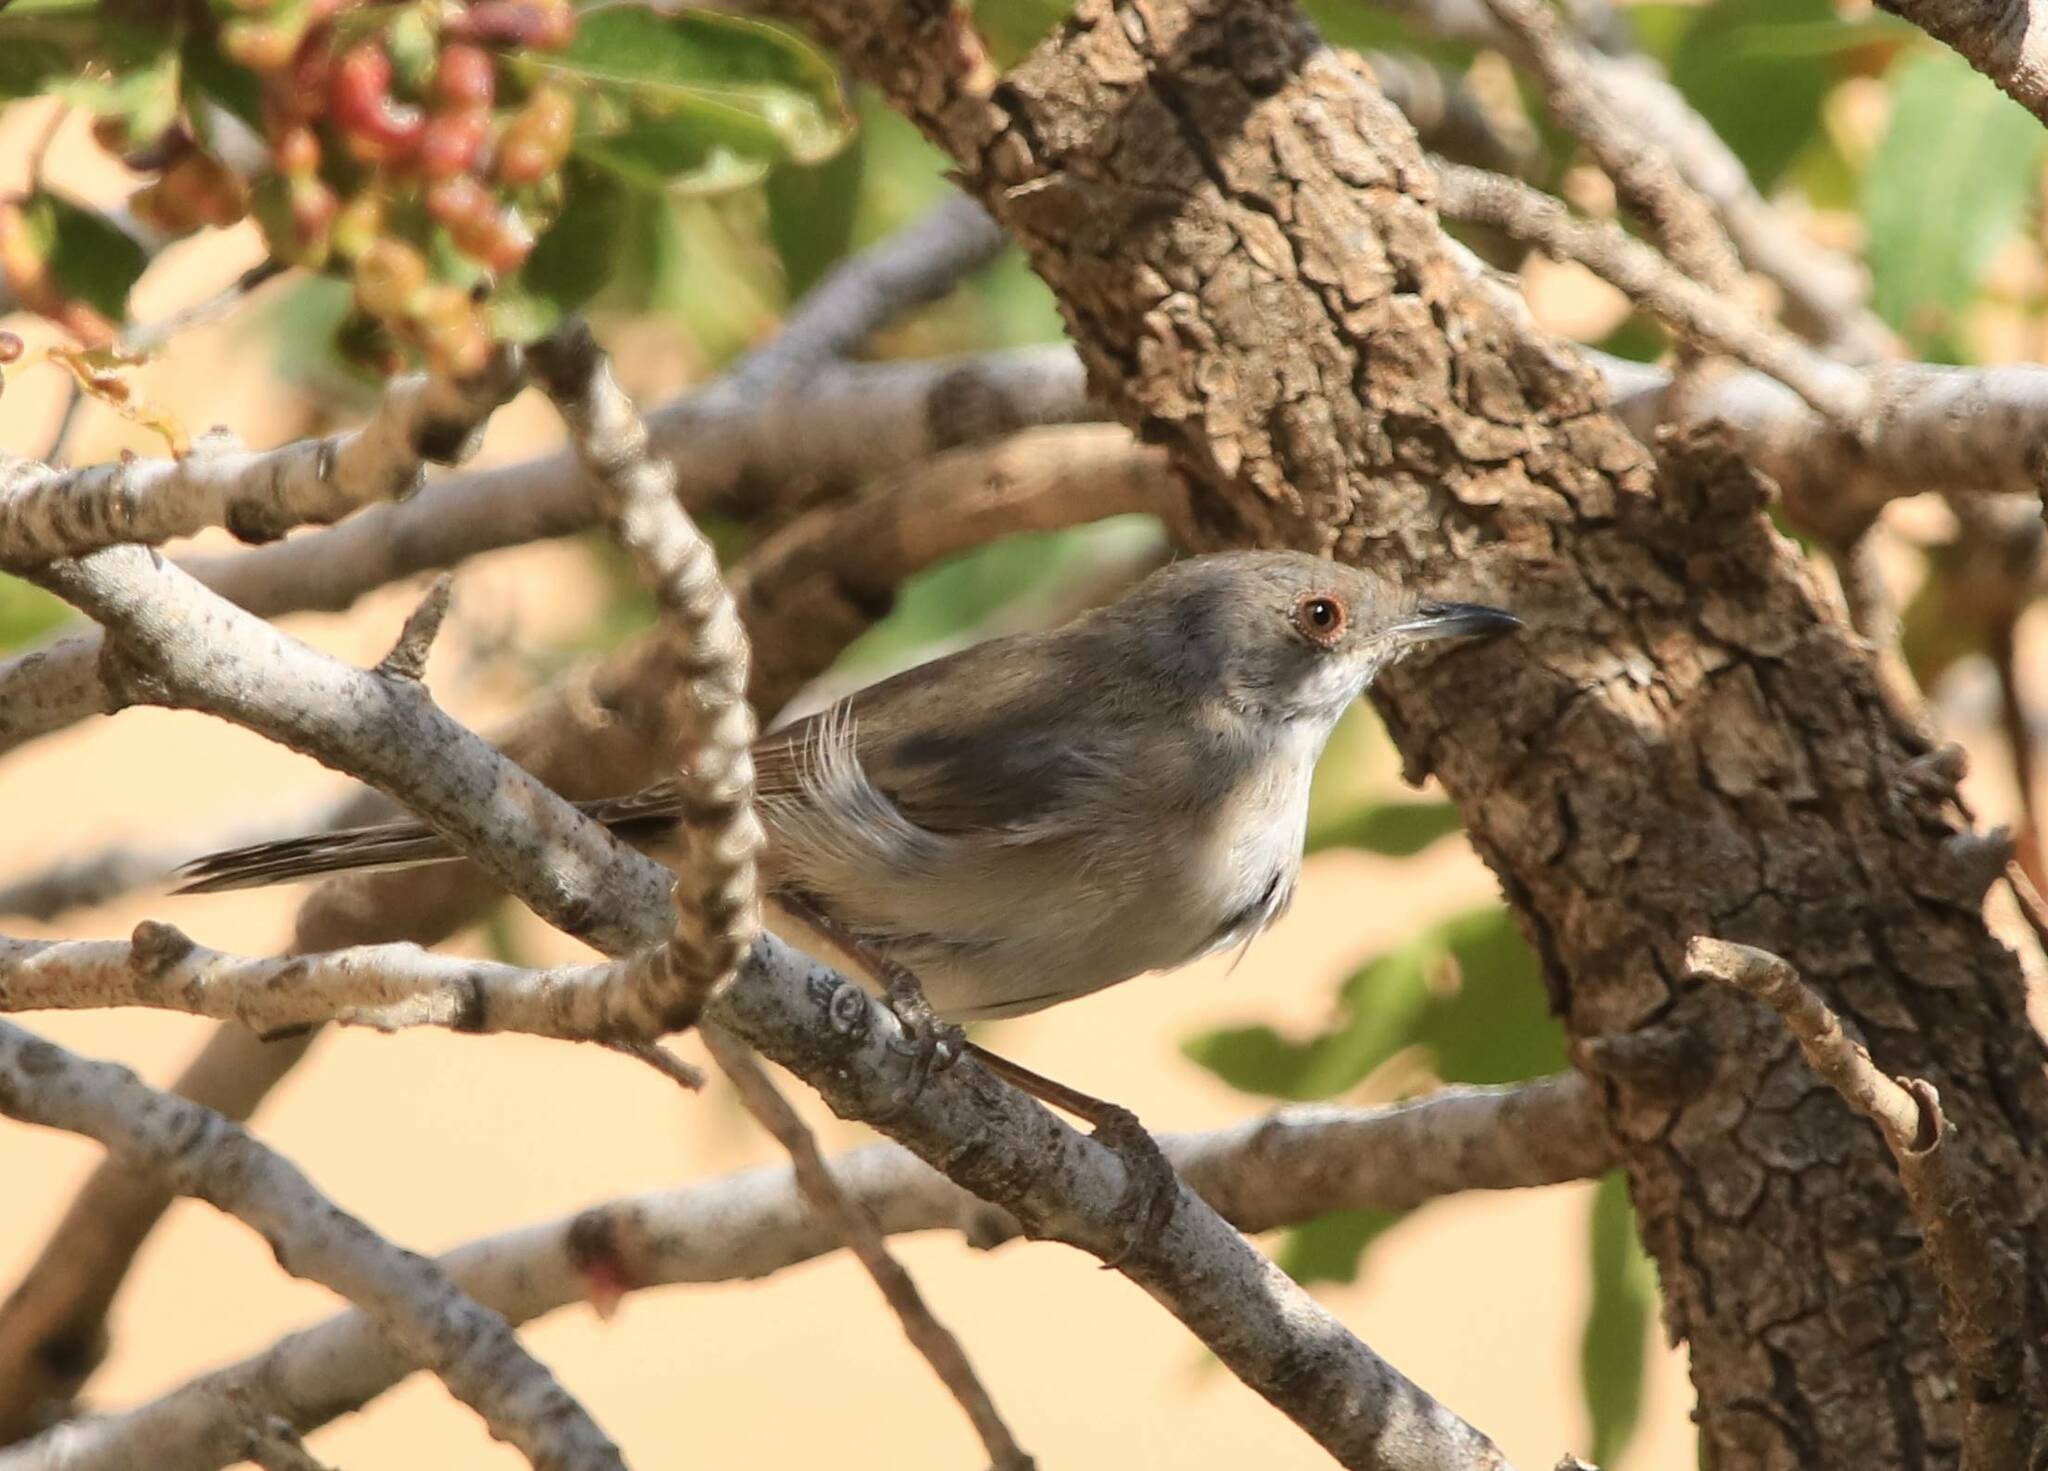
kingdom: Animalia
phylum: Chordata
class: Aves
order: Passeriformes
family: Sylviidae
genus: Curruca
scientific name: Curruca melanocephala
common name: Sardinian warbler
